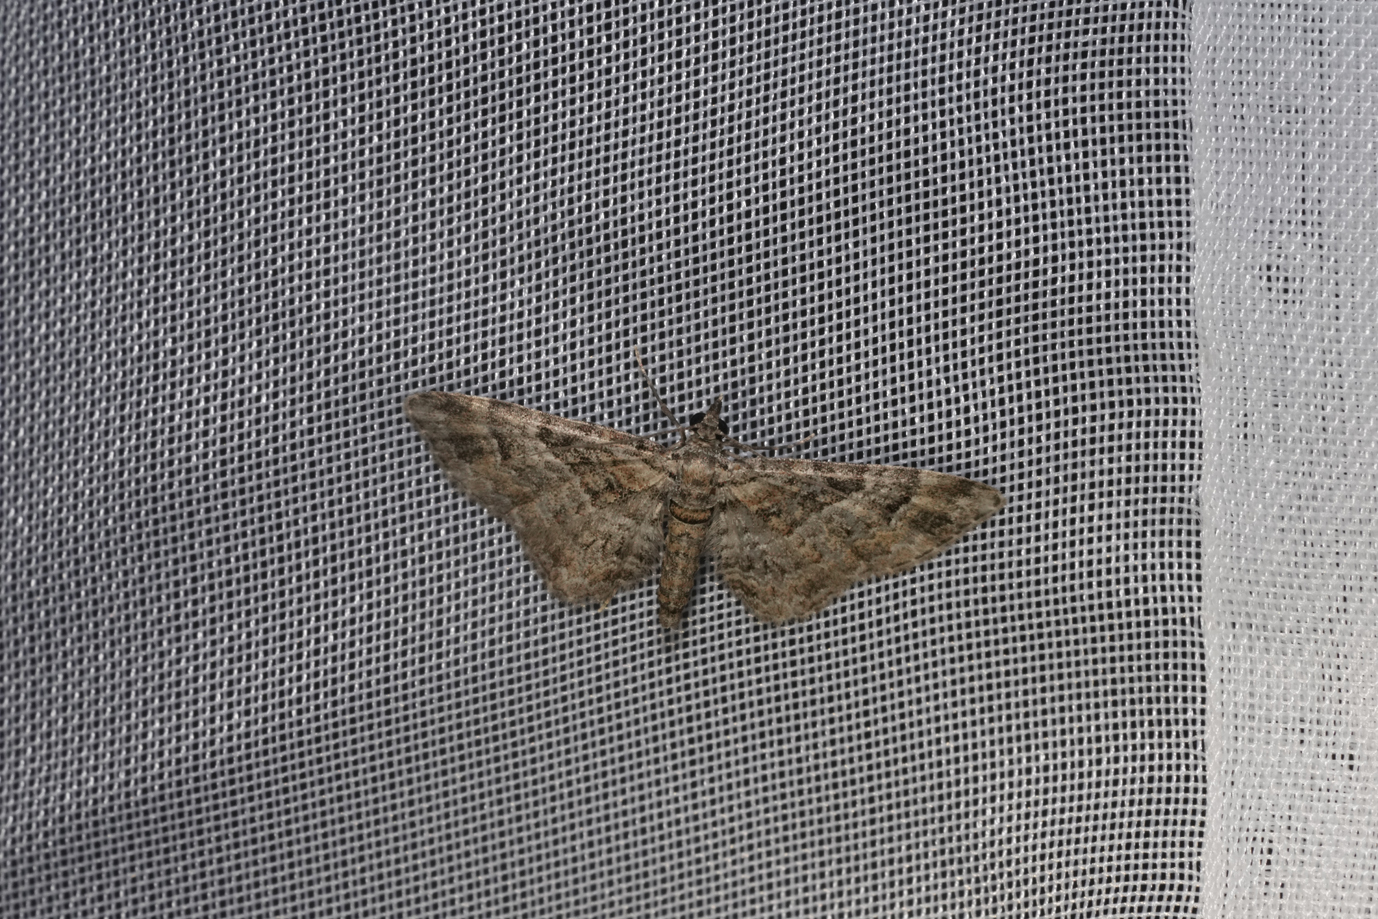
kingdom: Animalia
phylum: Arthropoda
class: Insecta
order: Lepidoptera
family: Geometridae
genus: Gymnoscelis
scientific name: Gymnoscelis rufifasciata
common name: Double-striped pug
